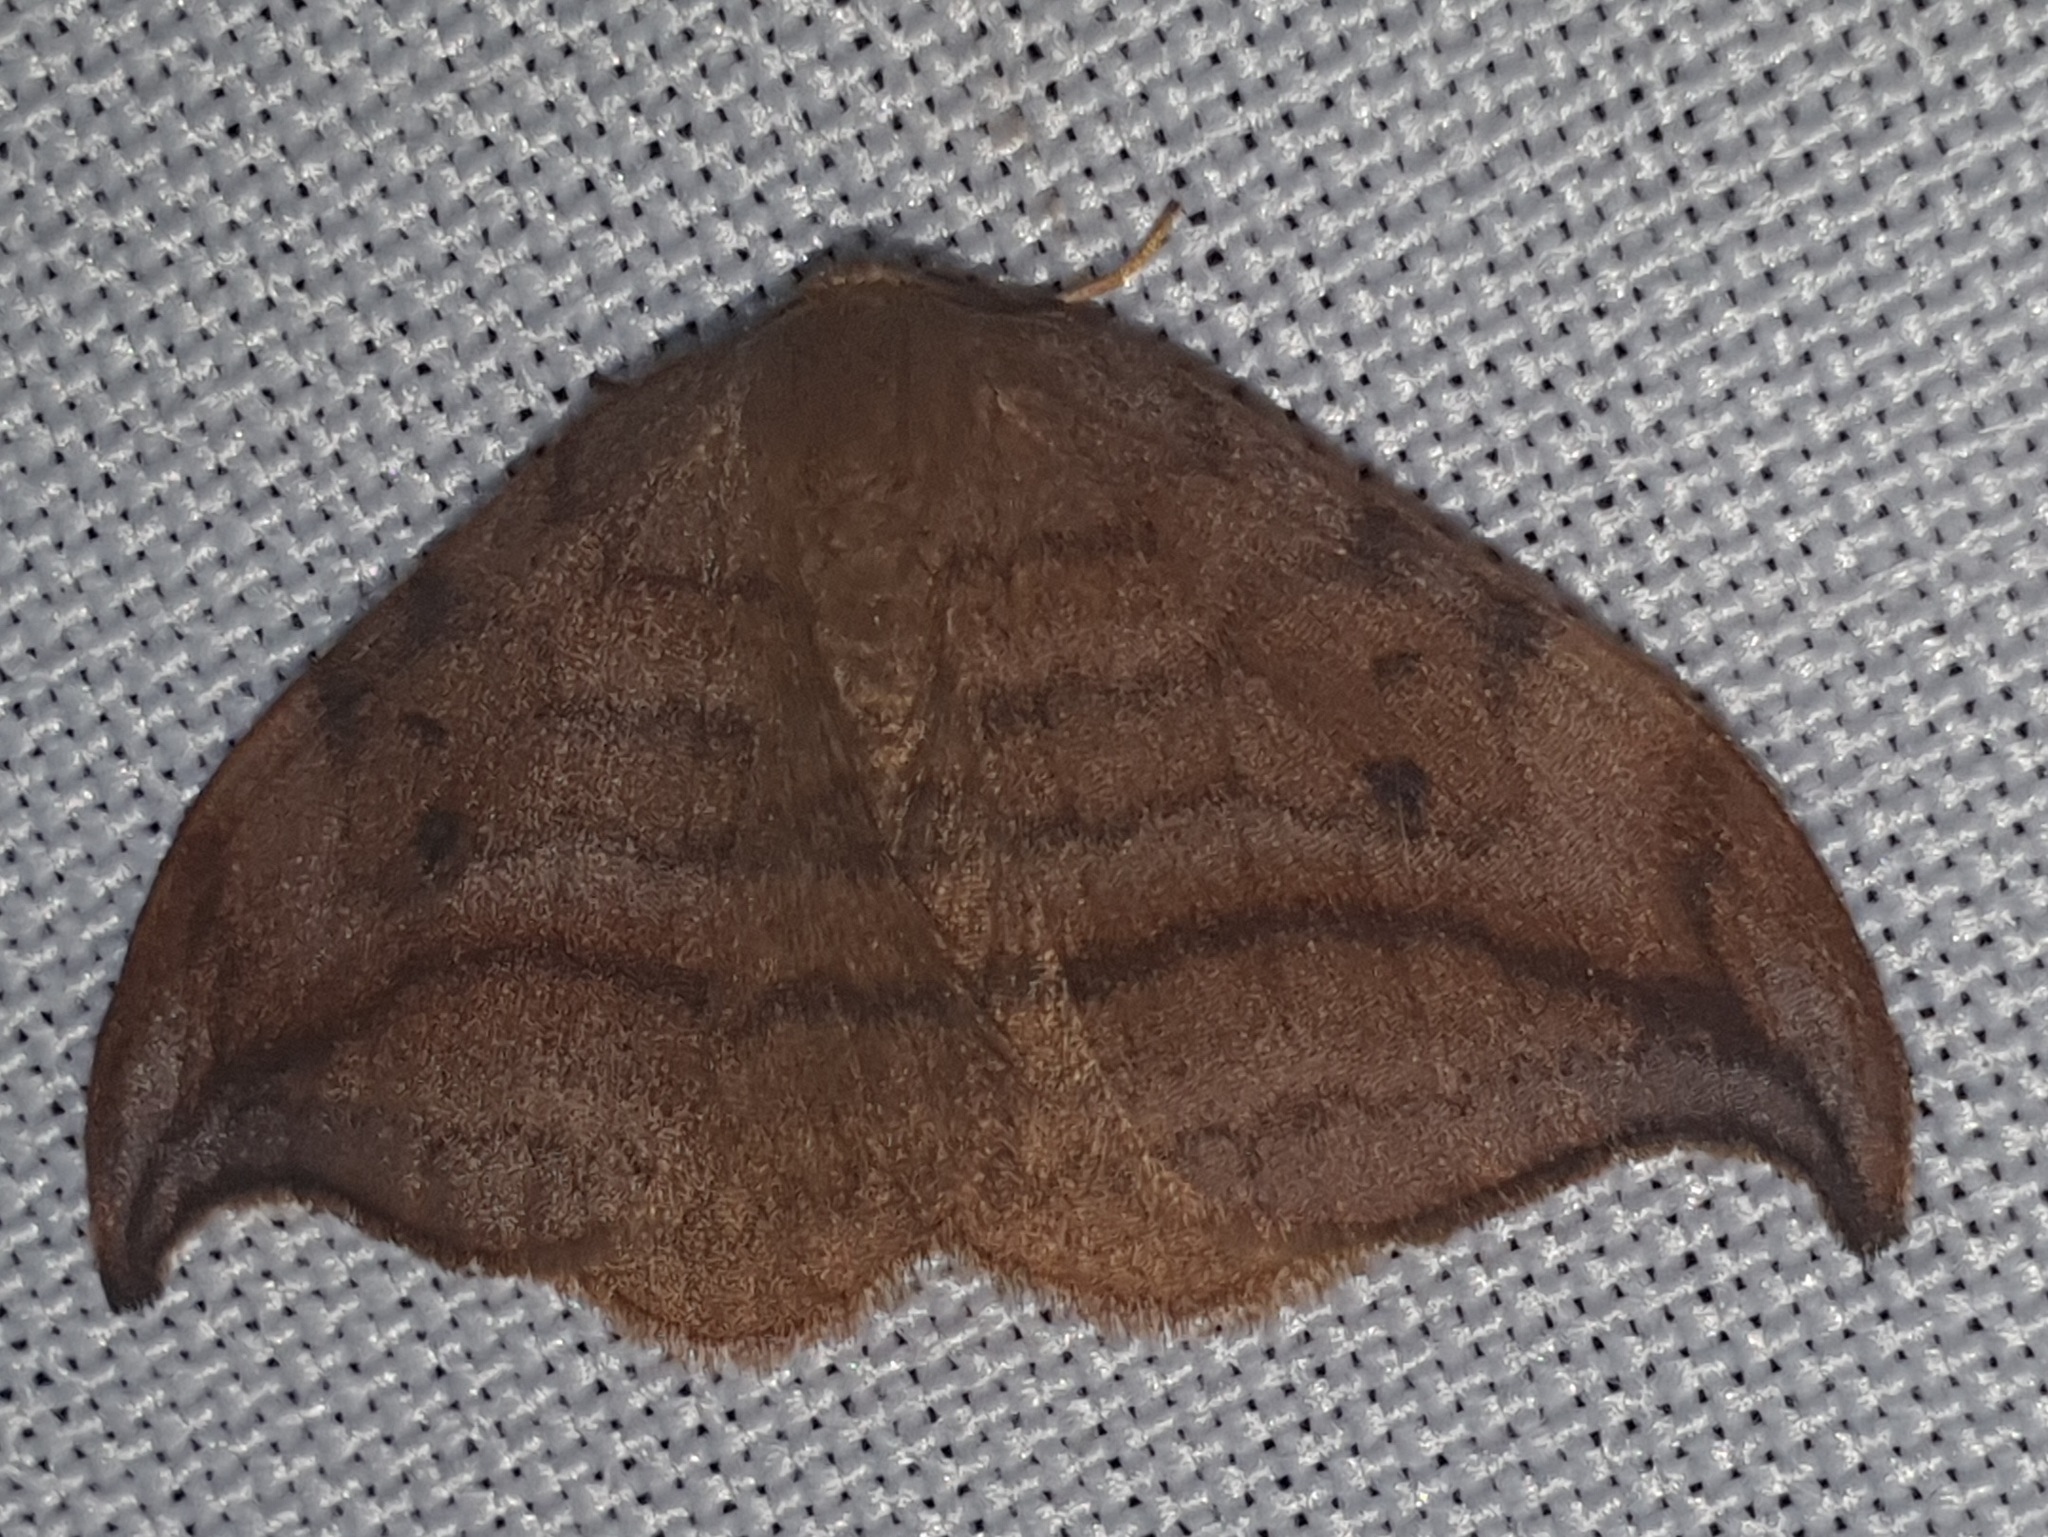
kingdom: Animalia
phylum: Arthropoda
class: Insecta
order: Lepidoptera
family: Drepanidae
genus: Drepana
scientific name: Drepana curvatula
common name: Dusky hook-tip
